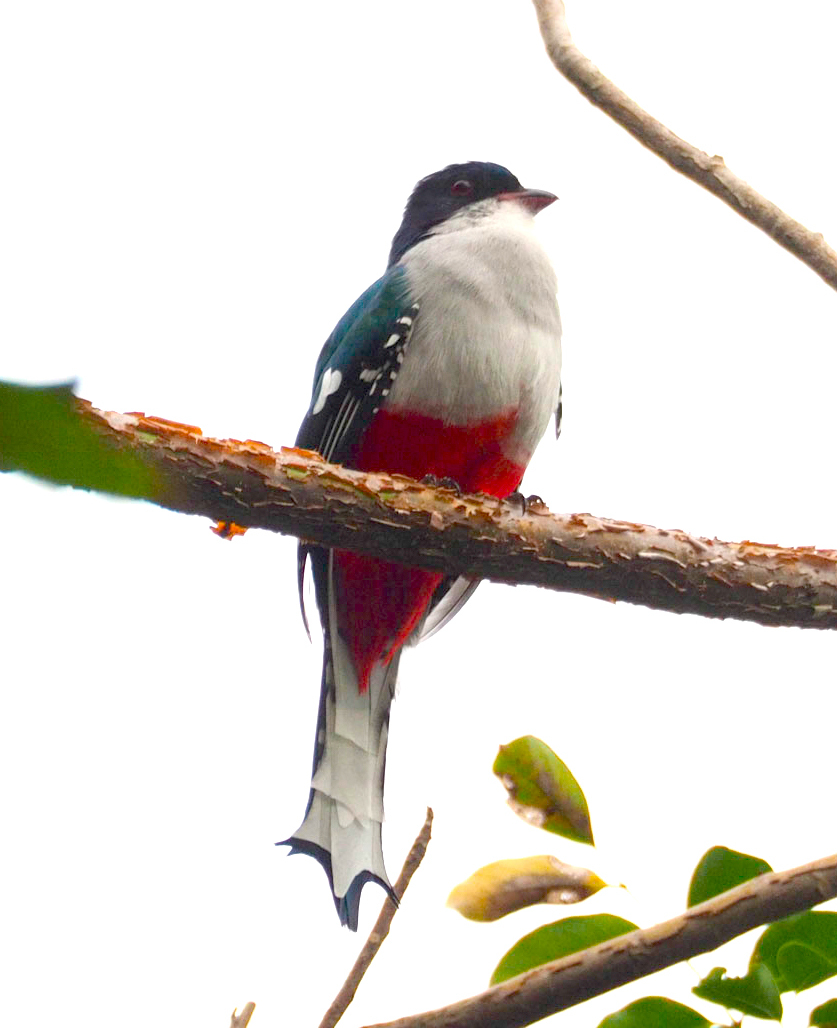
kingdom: Animalia
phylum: Chordata
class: Aves
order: Trogoniformes
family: Trogonidae
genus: Priotelus
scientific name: Priotelus temnurus
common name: Cuban trogon
